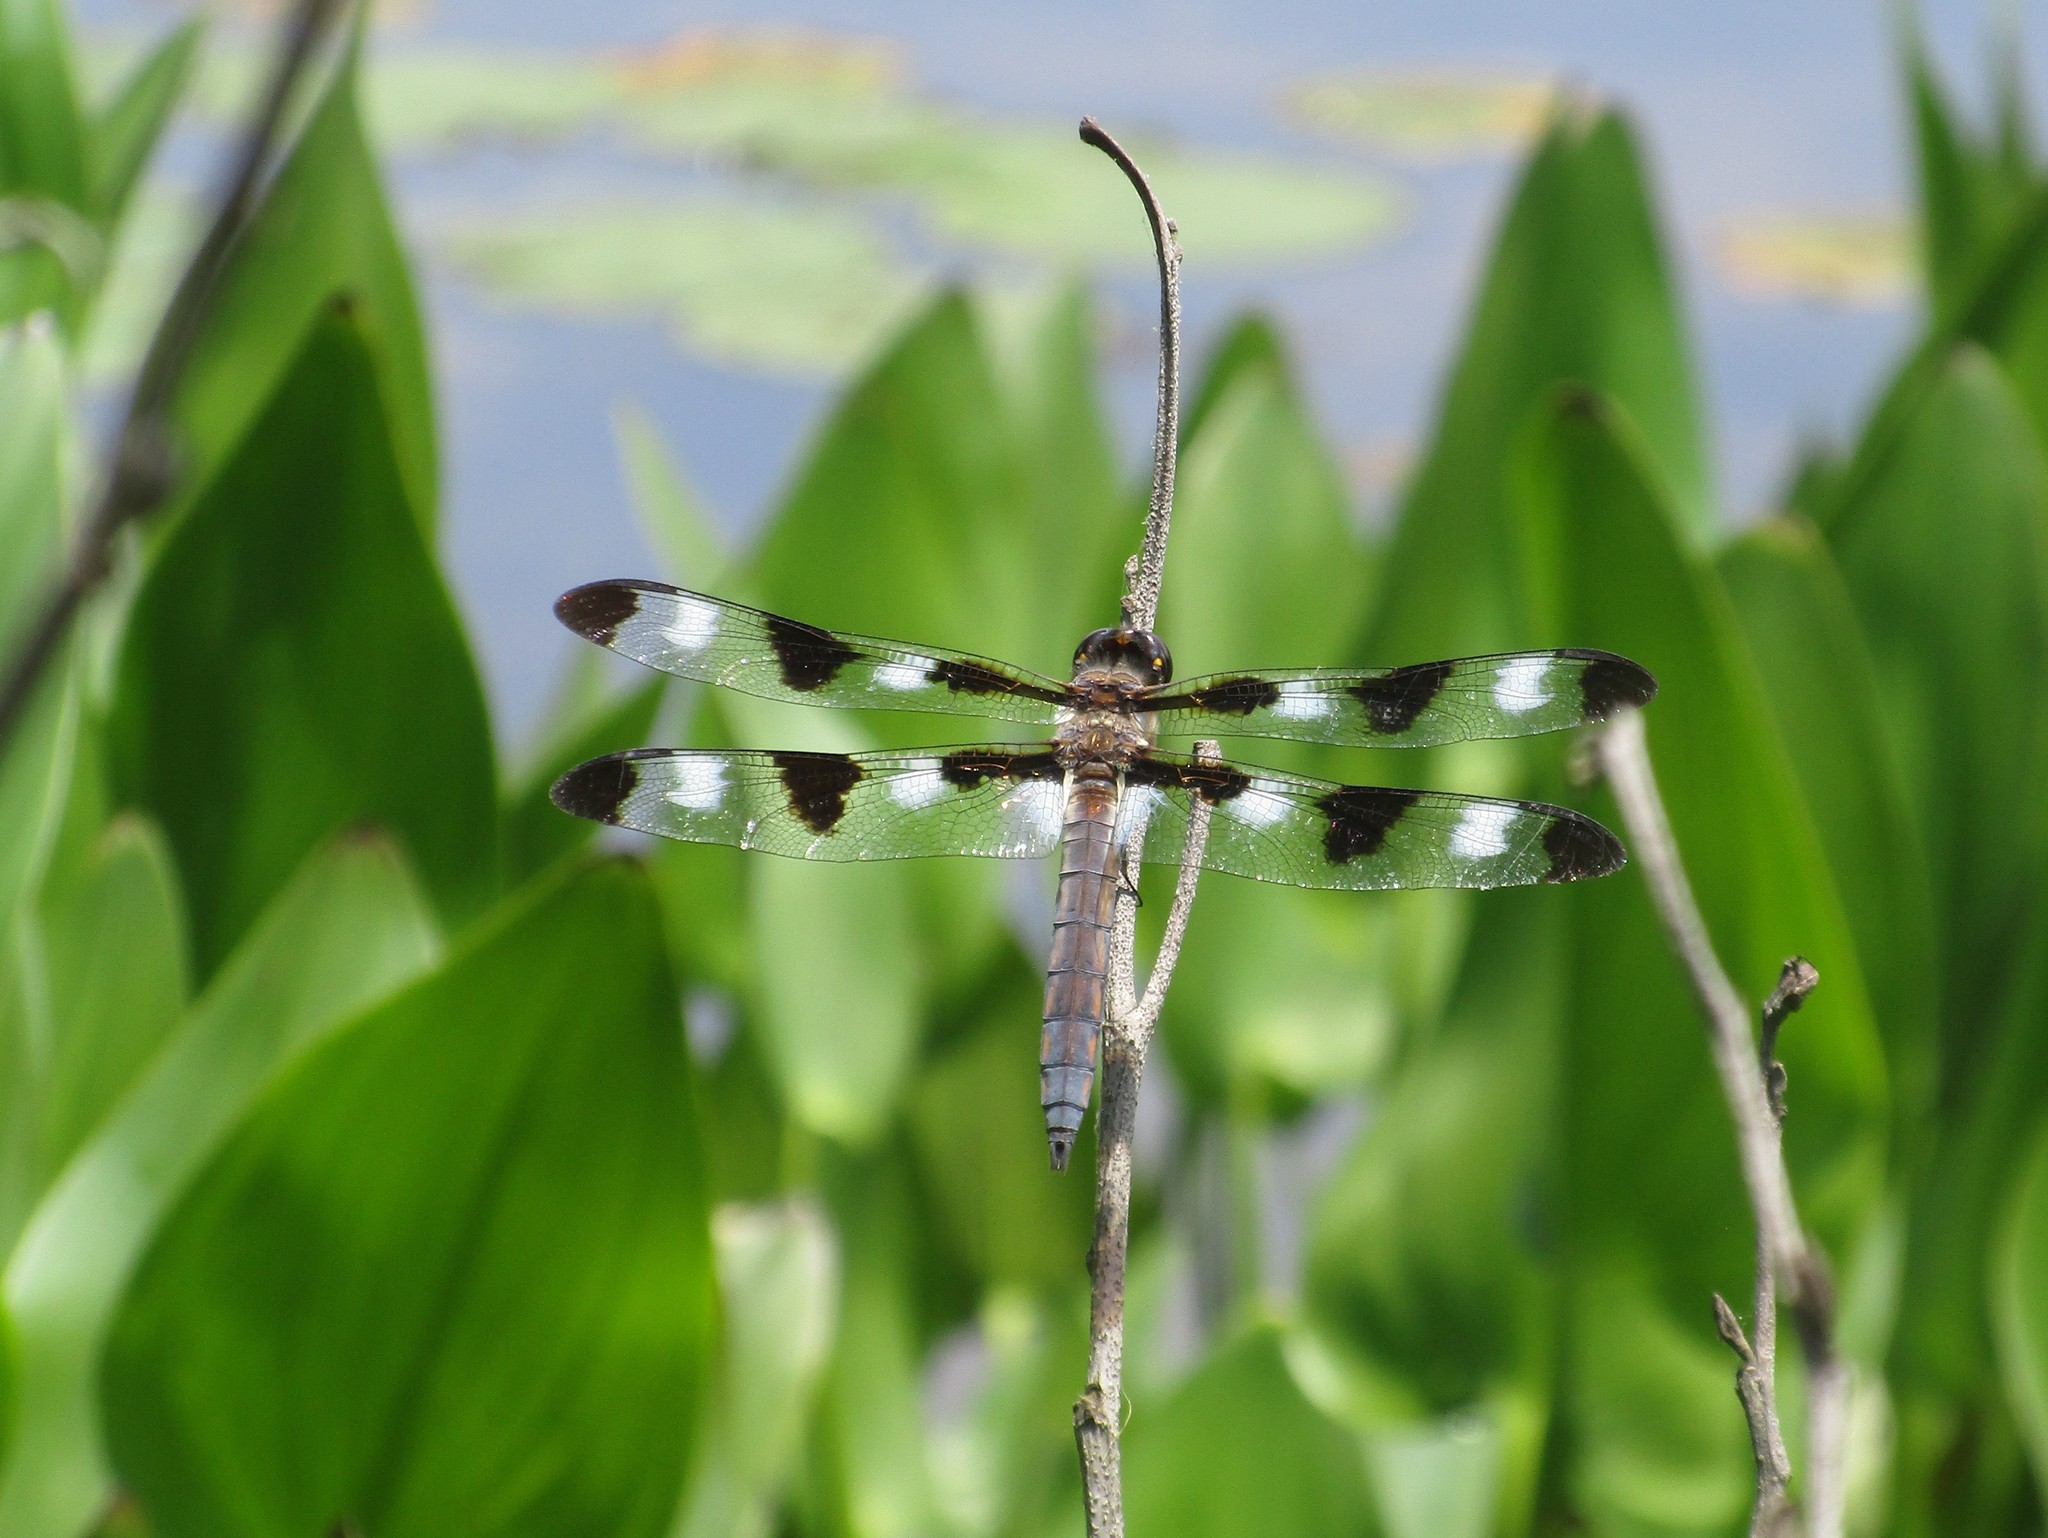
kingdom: Animalia
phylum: Arthropoda
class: Insecta
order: Odonata
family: Libellulidae
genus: Libellula
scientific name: Libellula pulchella
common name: Twelve-spotted skimmer
